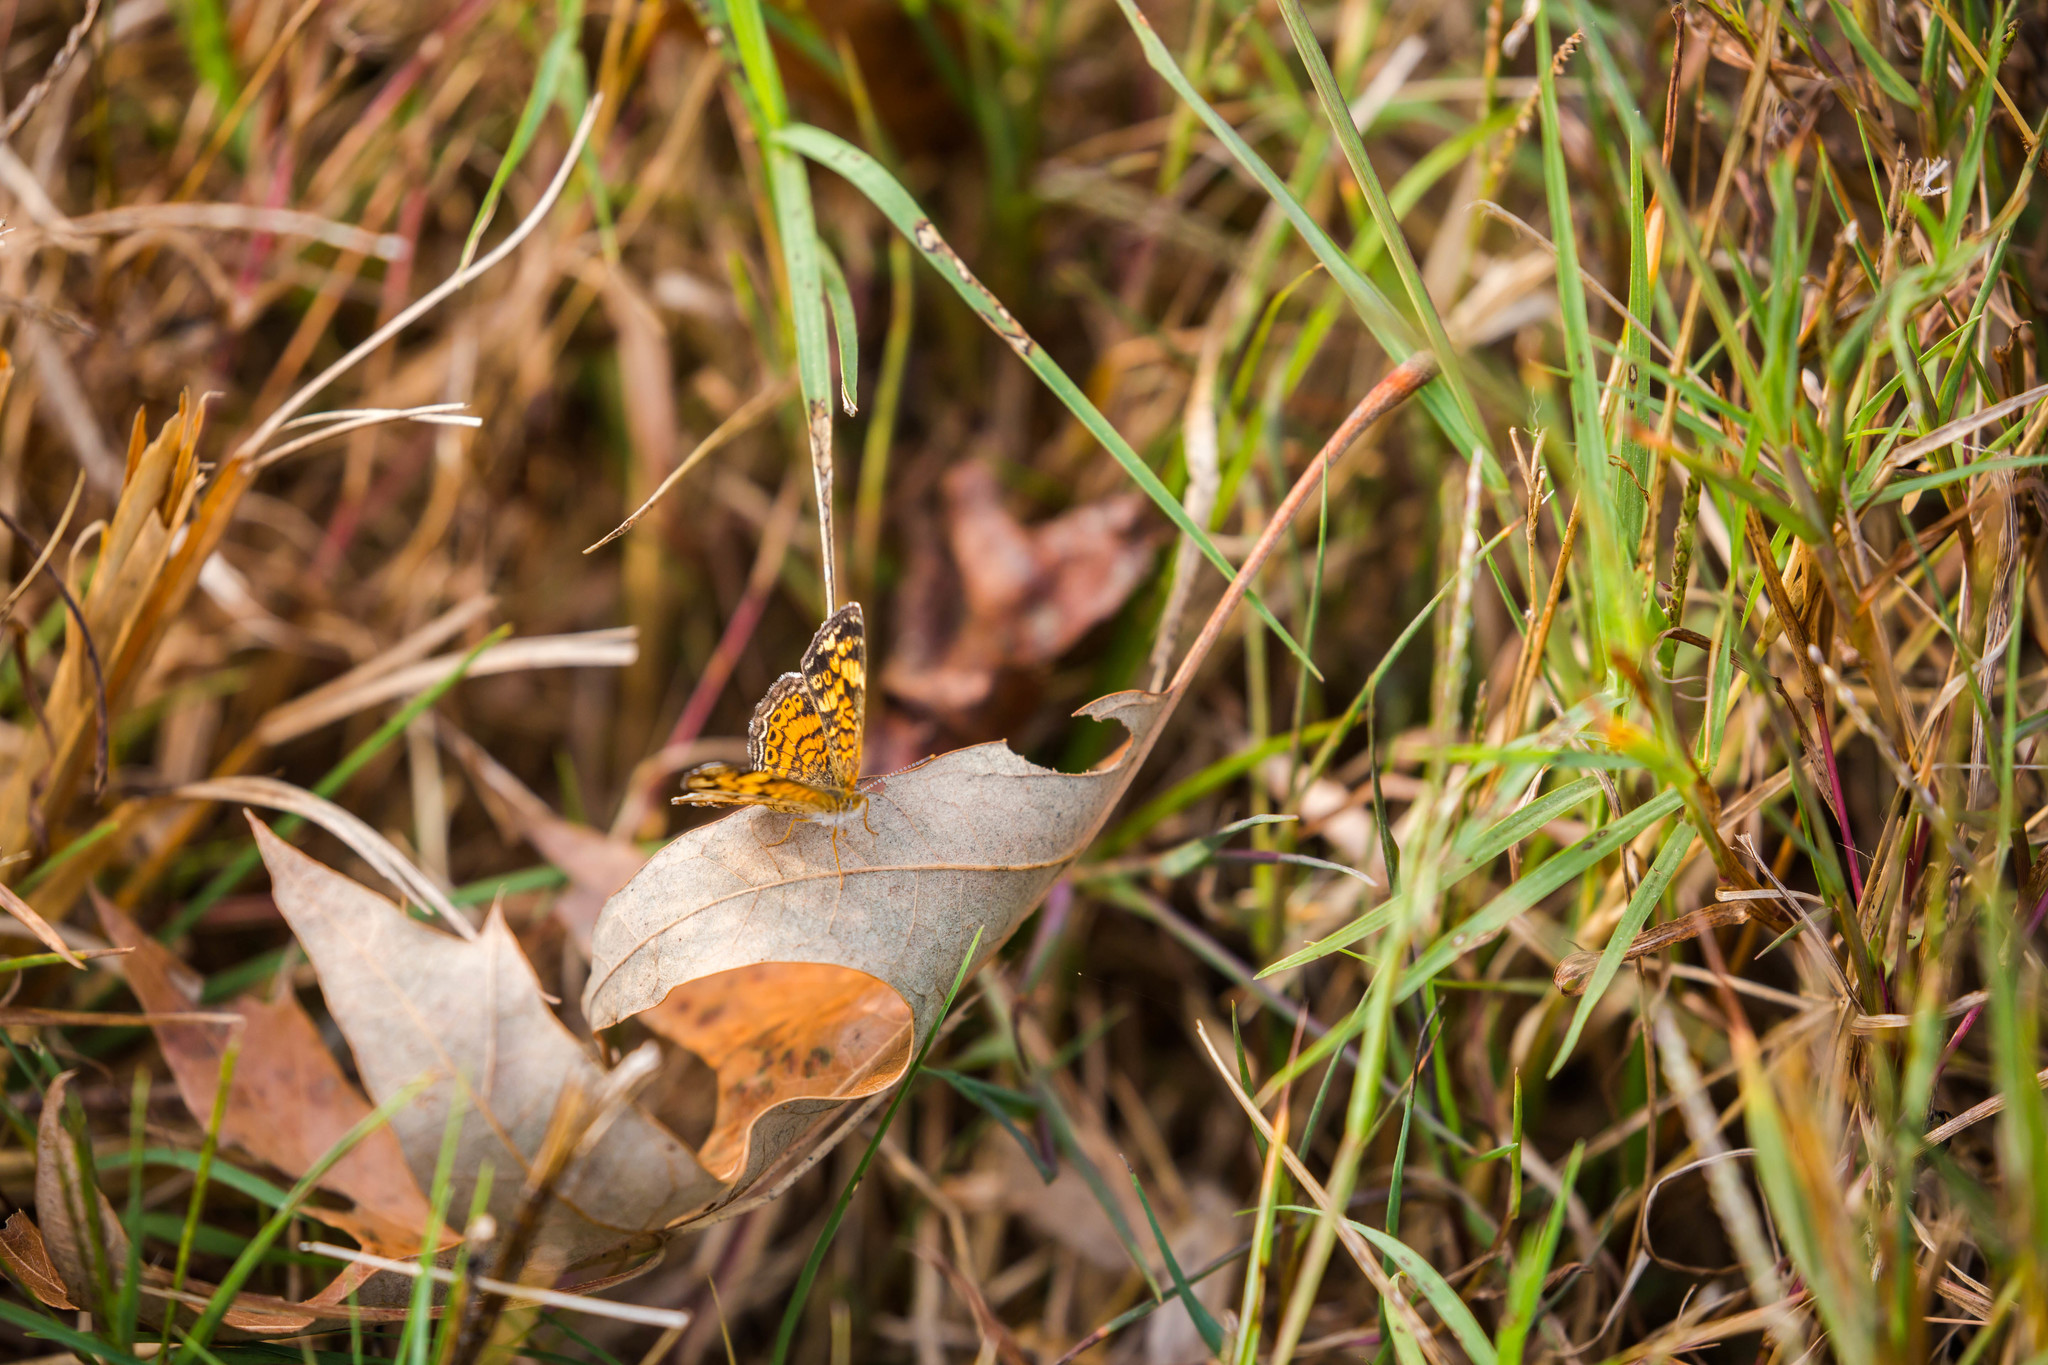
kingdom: Animalia
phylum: Arthropoda
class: Insecta
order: Lepidoptera
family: Nymphalidae
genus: Phyciodes
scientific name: Phyciodes tharos
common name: Pearl crescent
